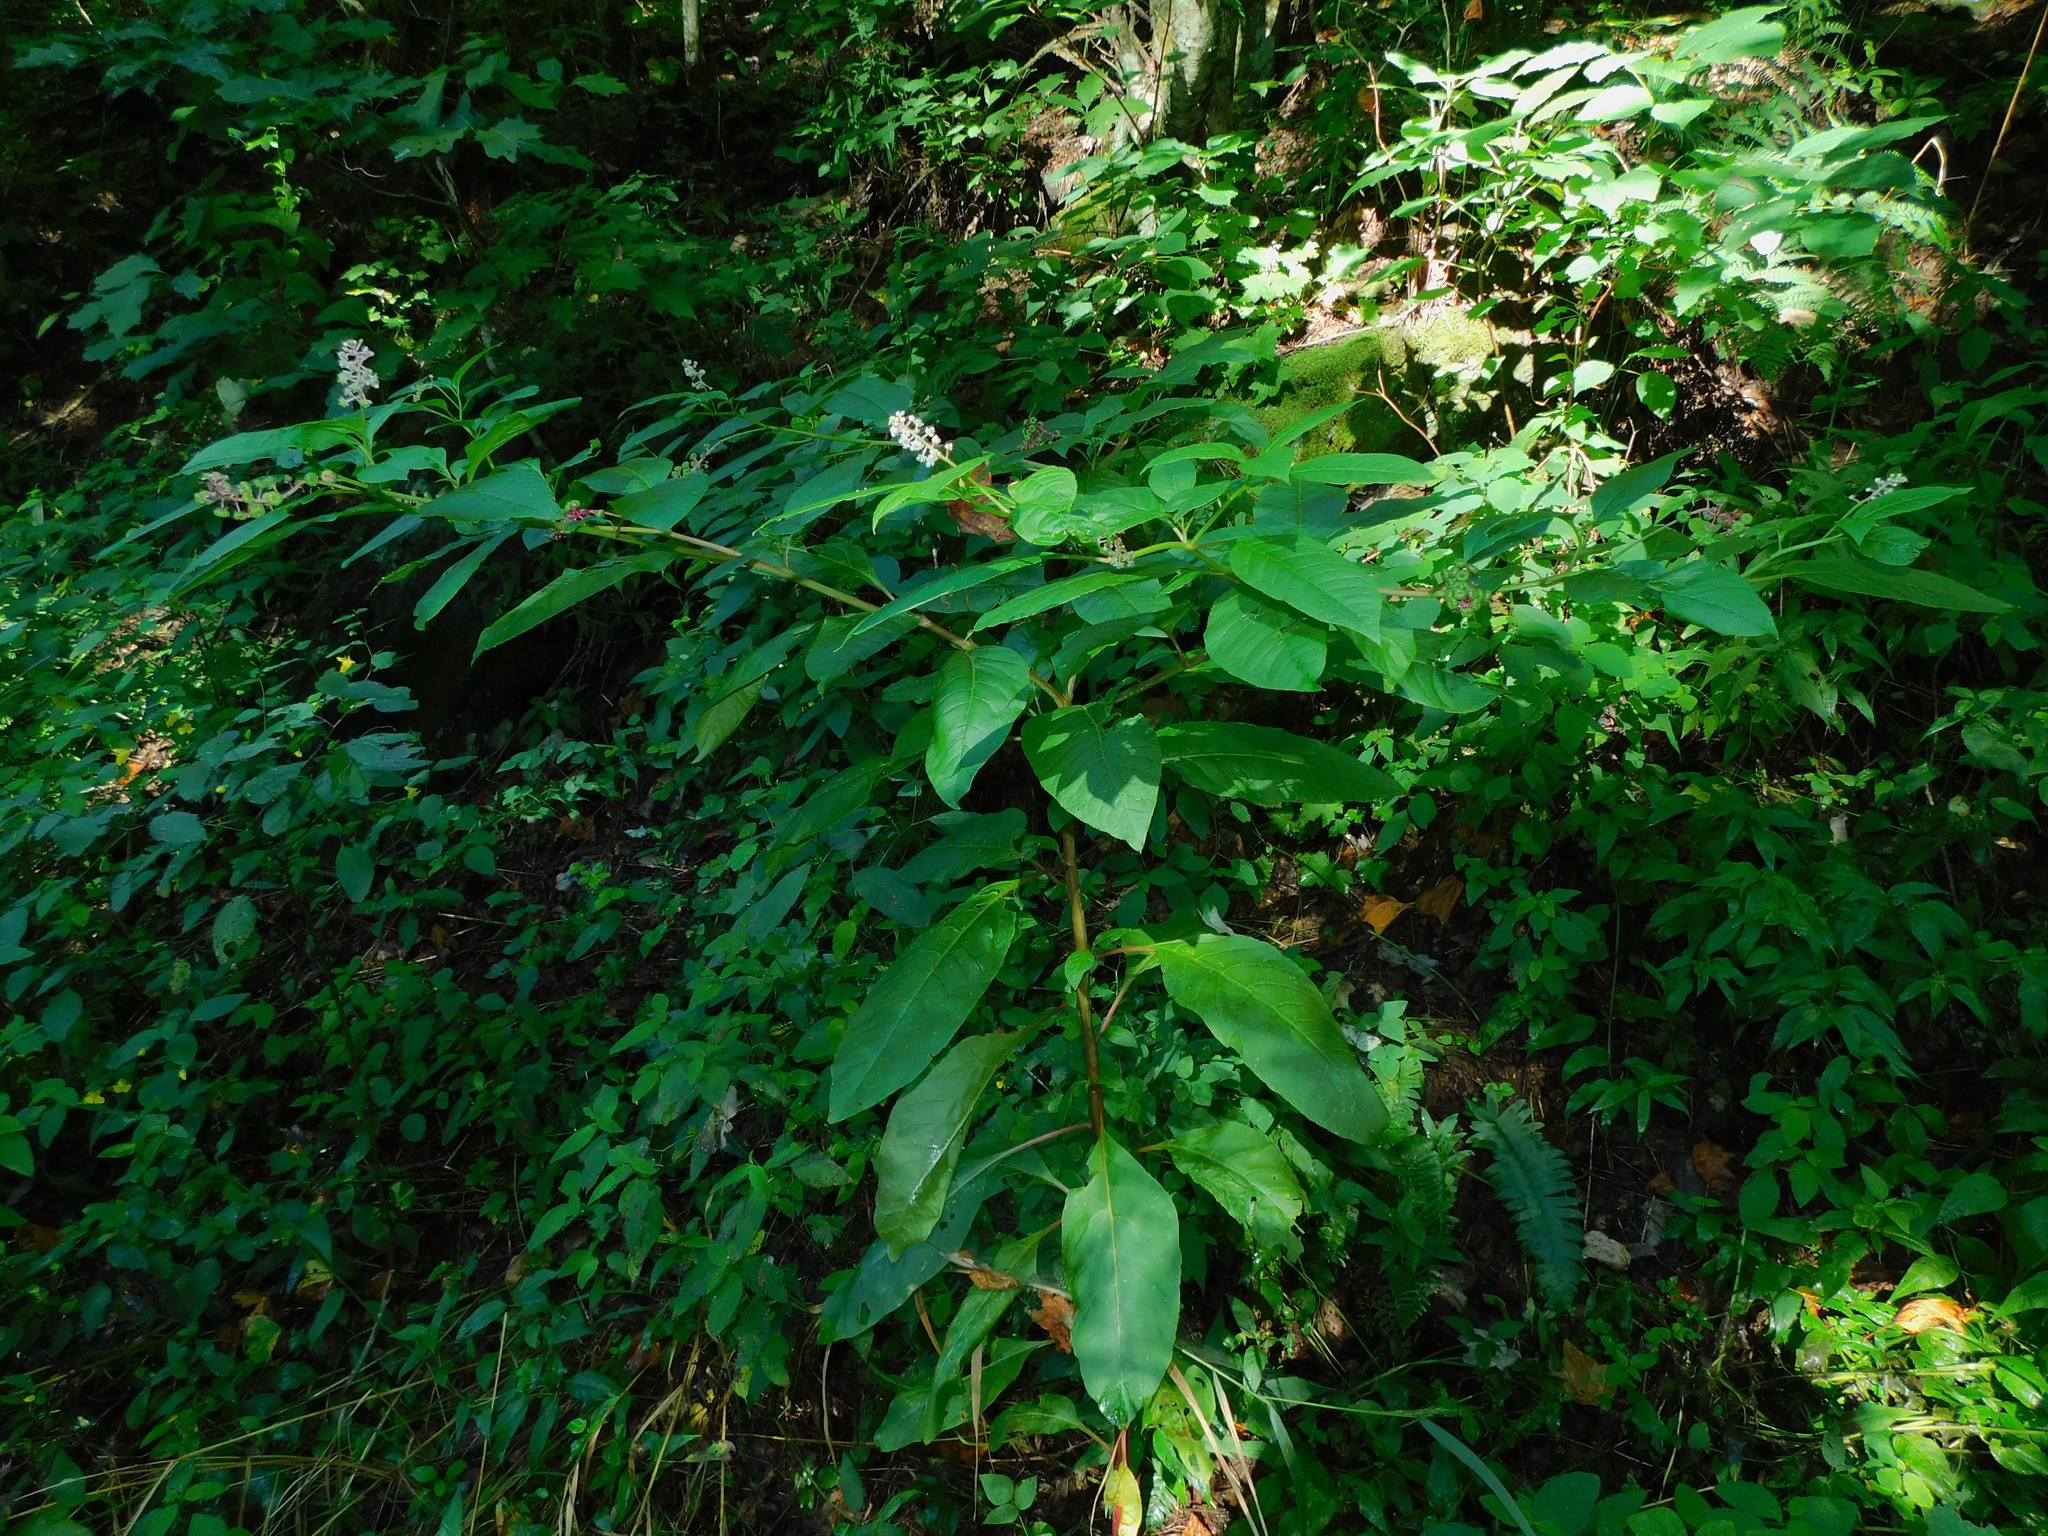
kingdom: Plantae
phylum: Tracheophyta
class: Magnoliopsida
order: Caryophyllales
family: Phytolaccaceae
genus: Phytolacca
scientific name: Phytolacca americana
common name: American pokeweed
